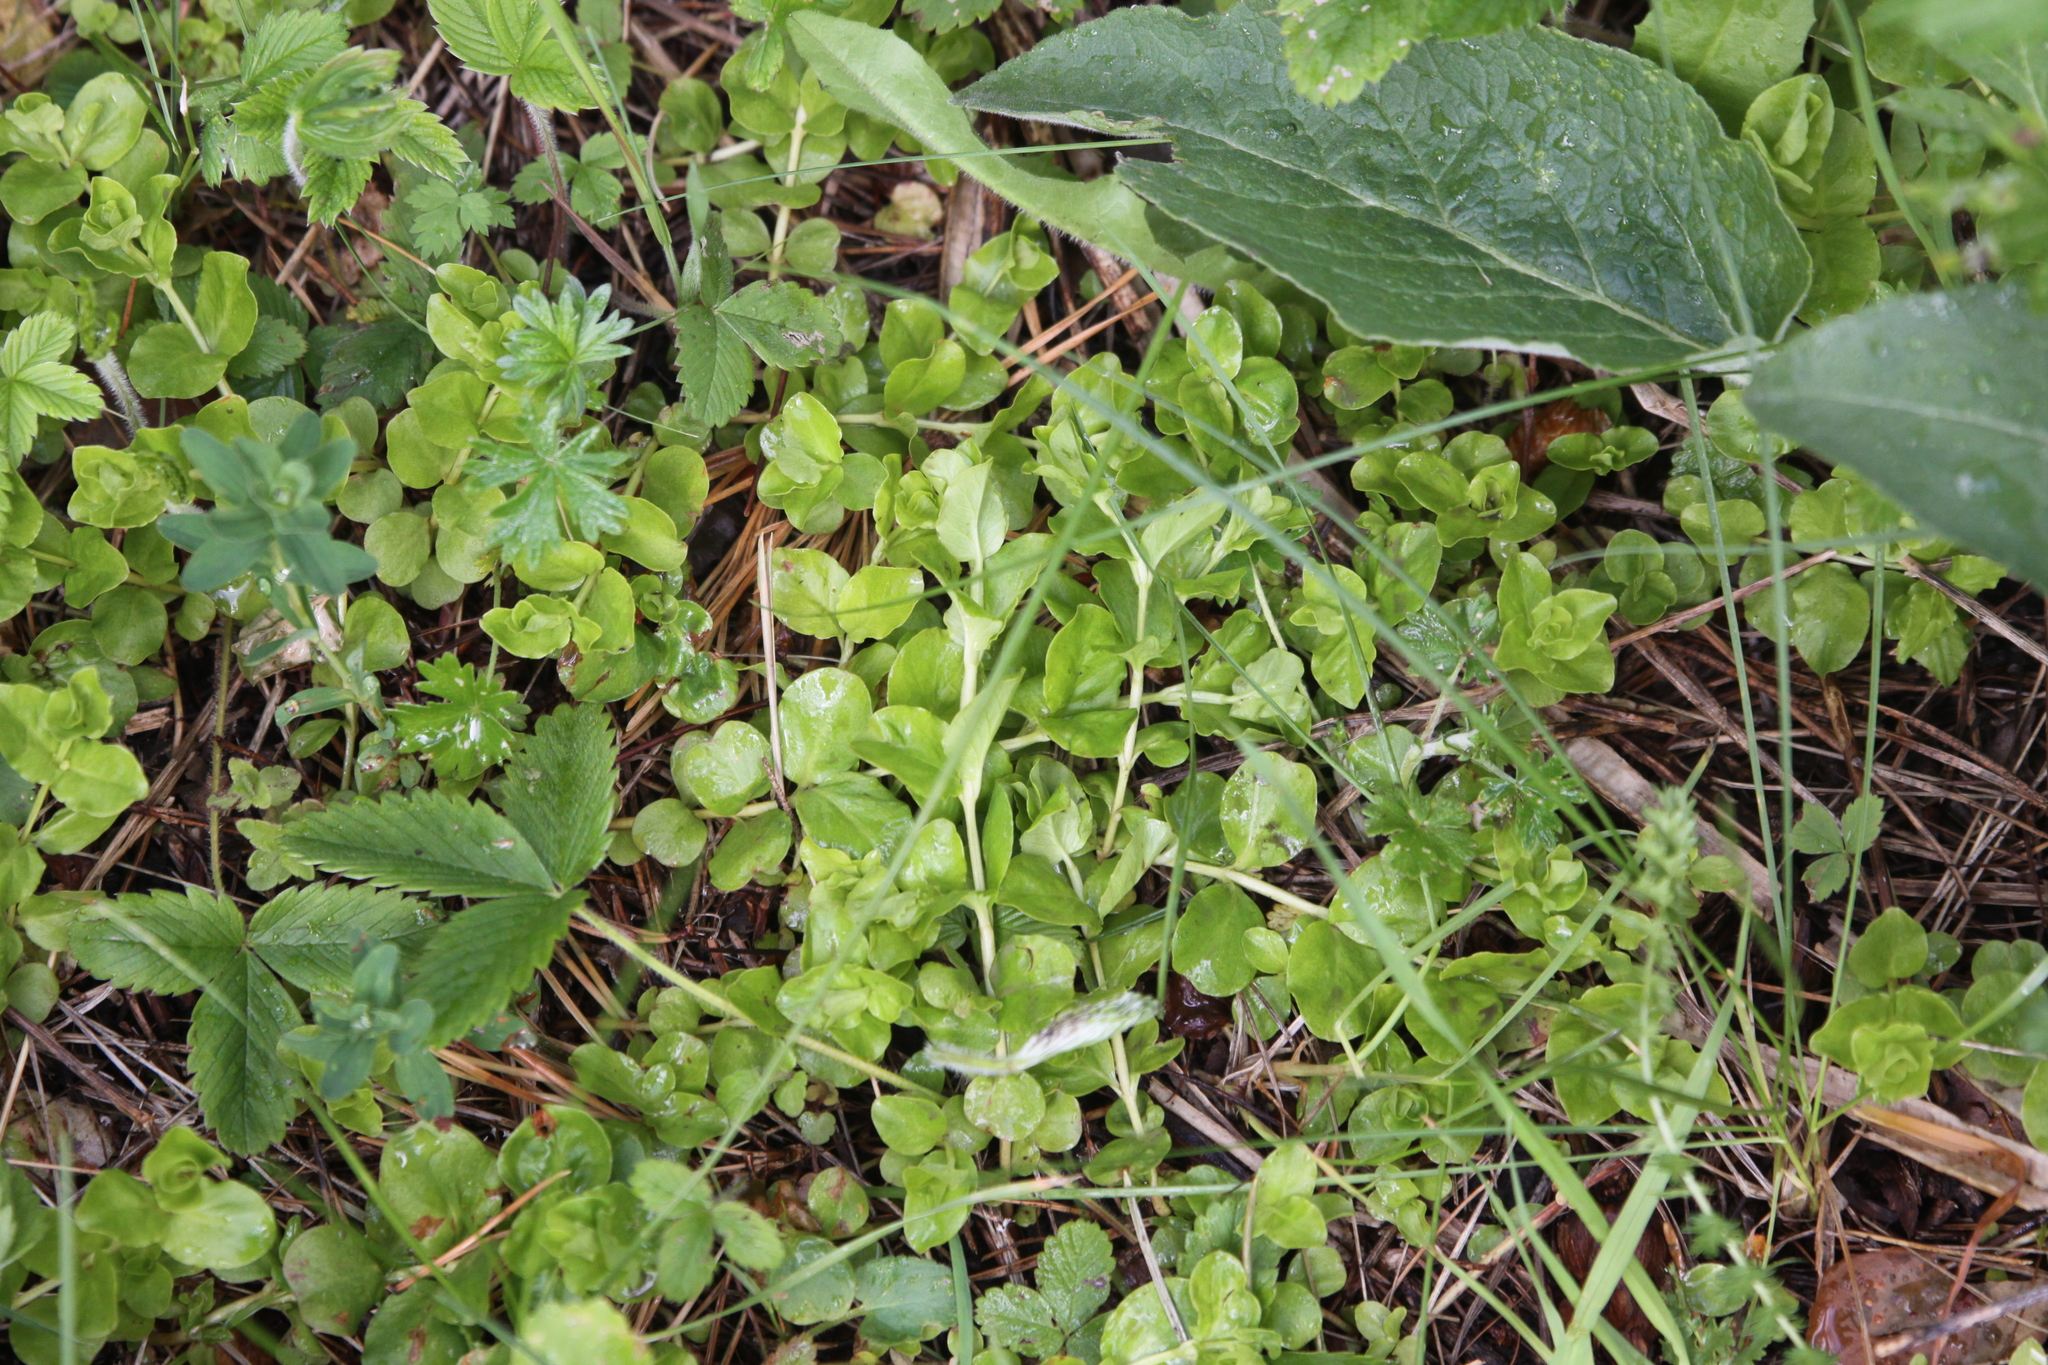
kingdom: Plantae
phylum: Tracheophyta
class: Magnoliopsida
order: Ericales
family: Primulaceae
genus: Lysimachia
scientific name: Lysimachia nummularia
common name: Moneywort
